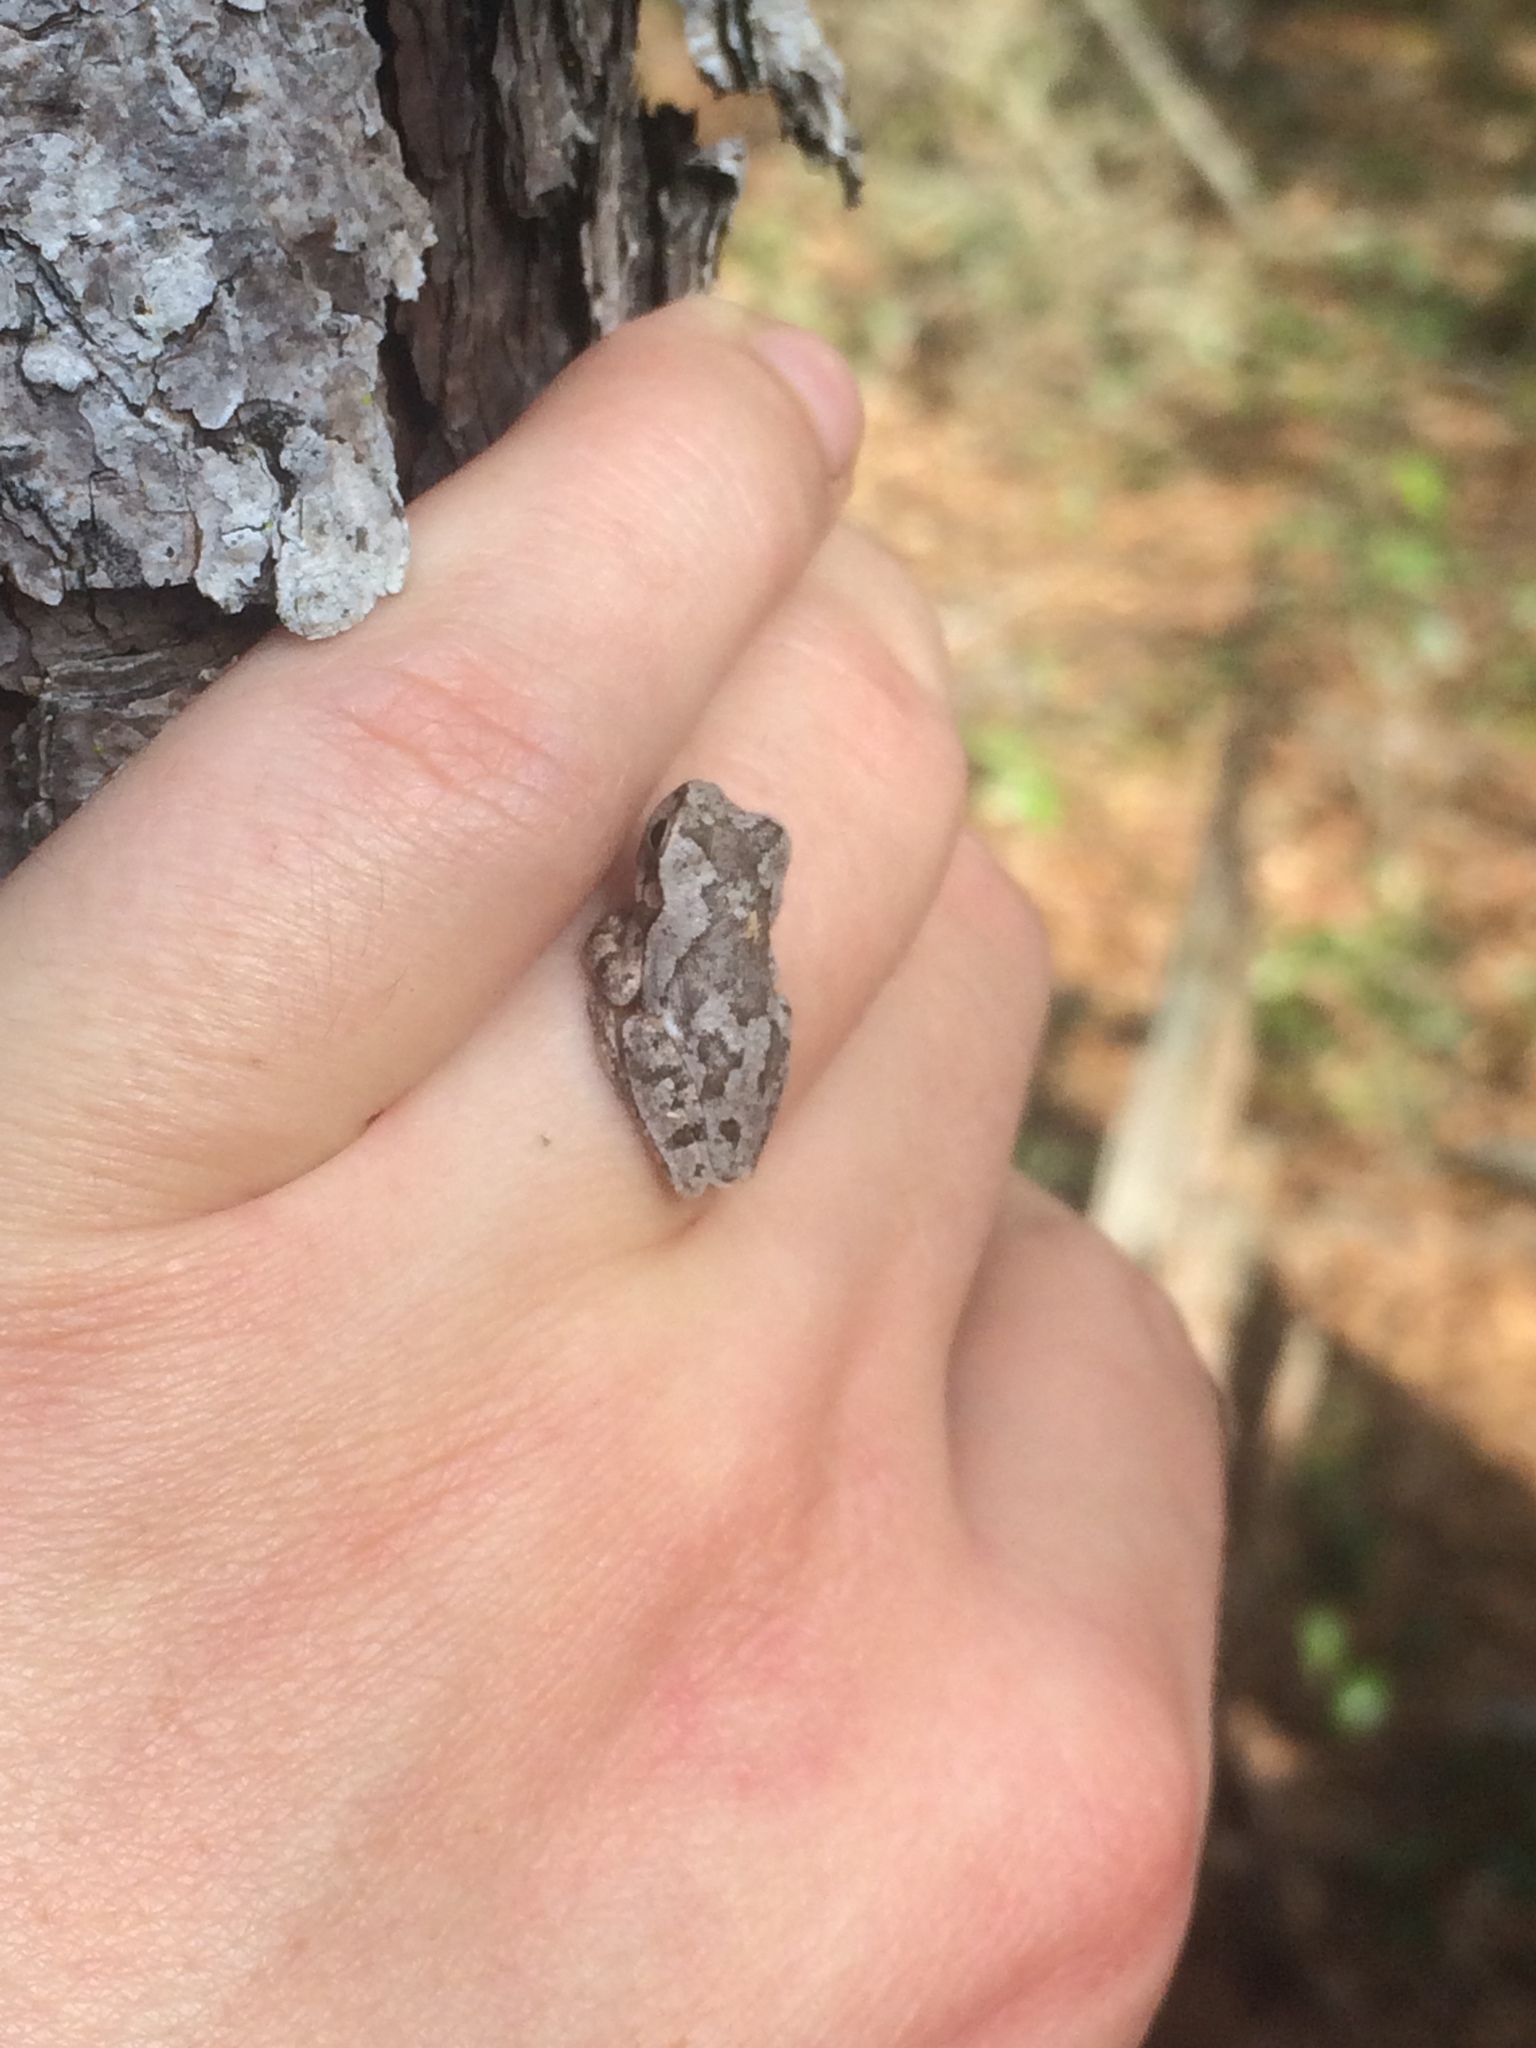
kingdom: Animalia
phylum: Chordata
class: Amphibia
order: Anura
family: Hylidae
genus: Hyla
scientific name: Hyla femoralis
